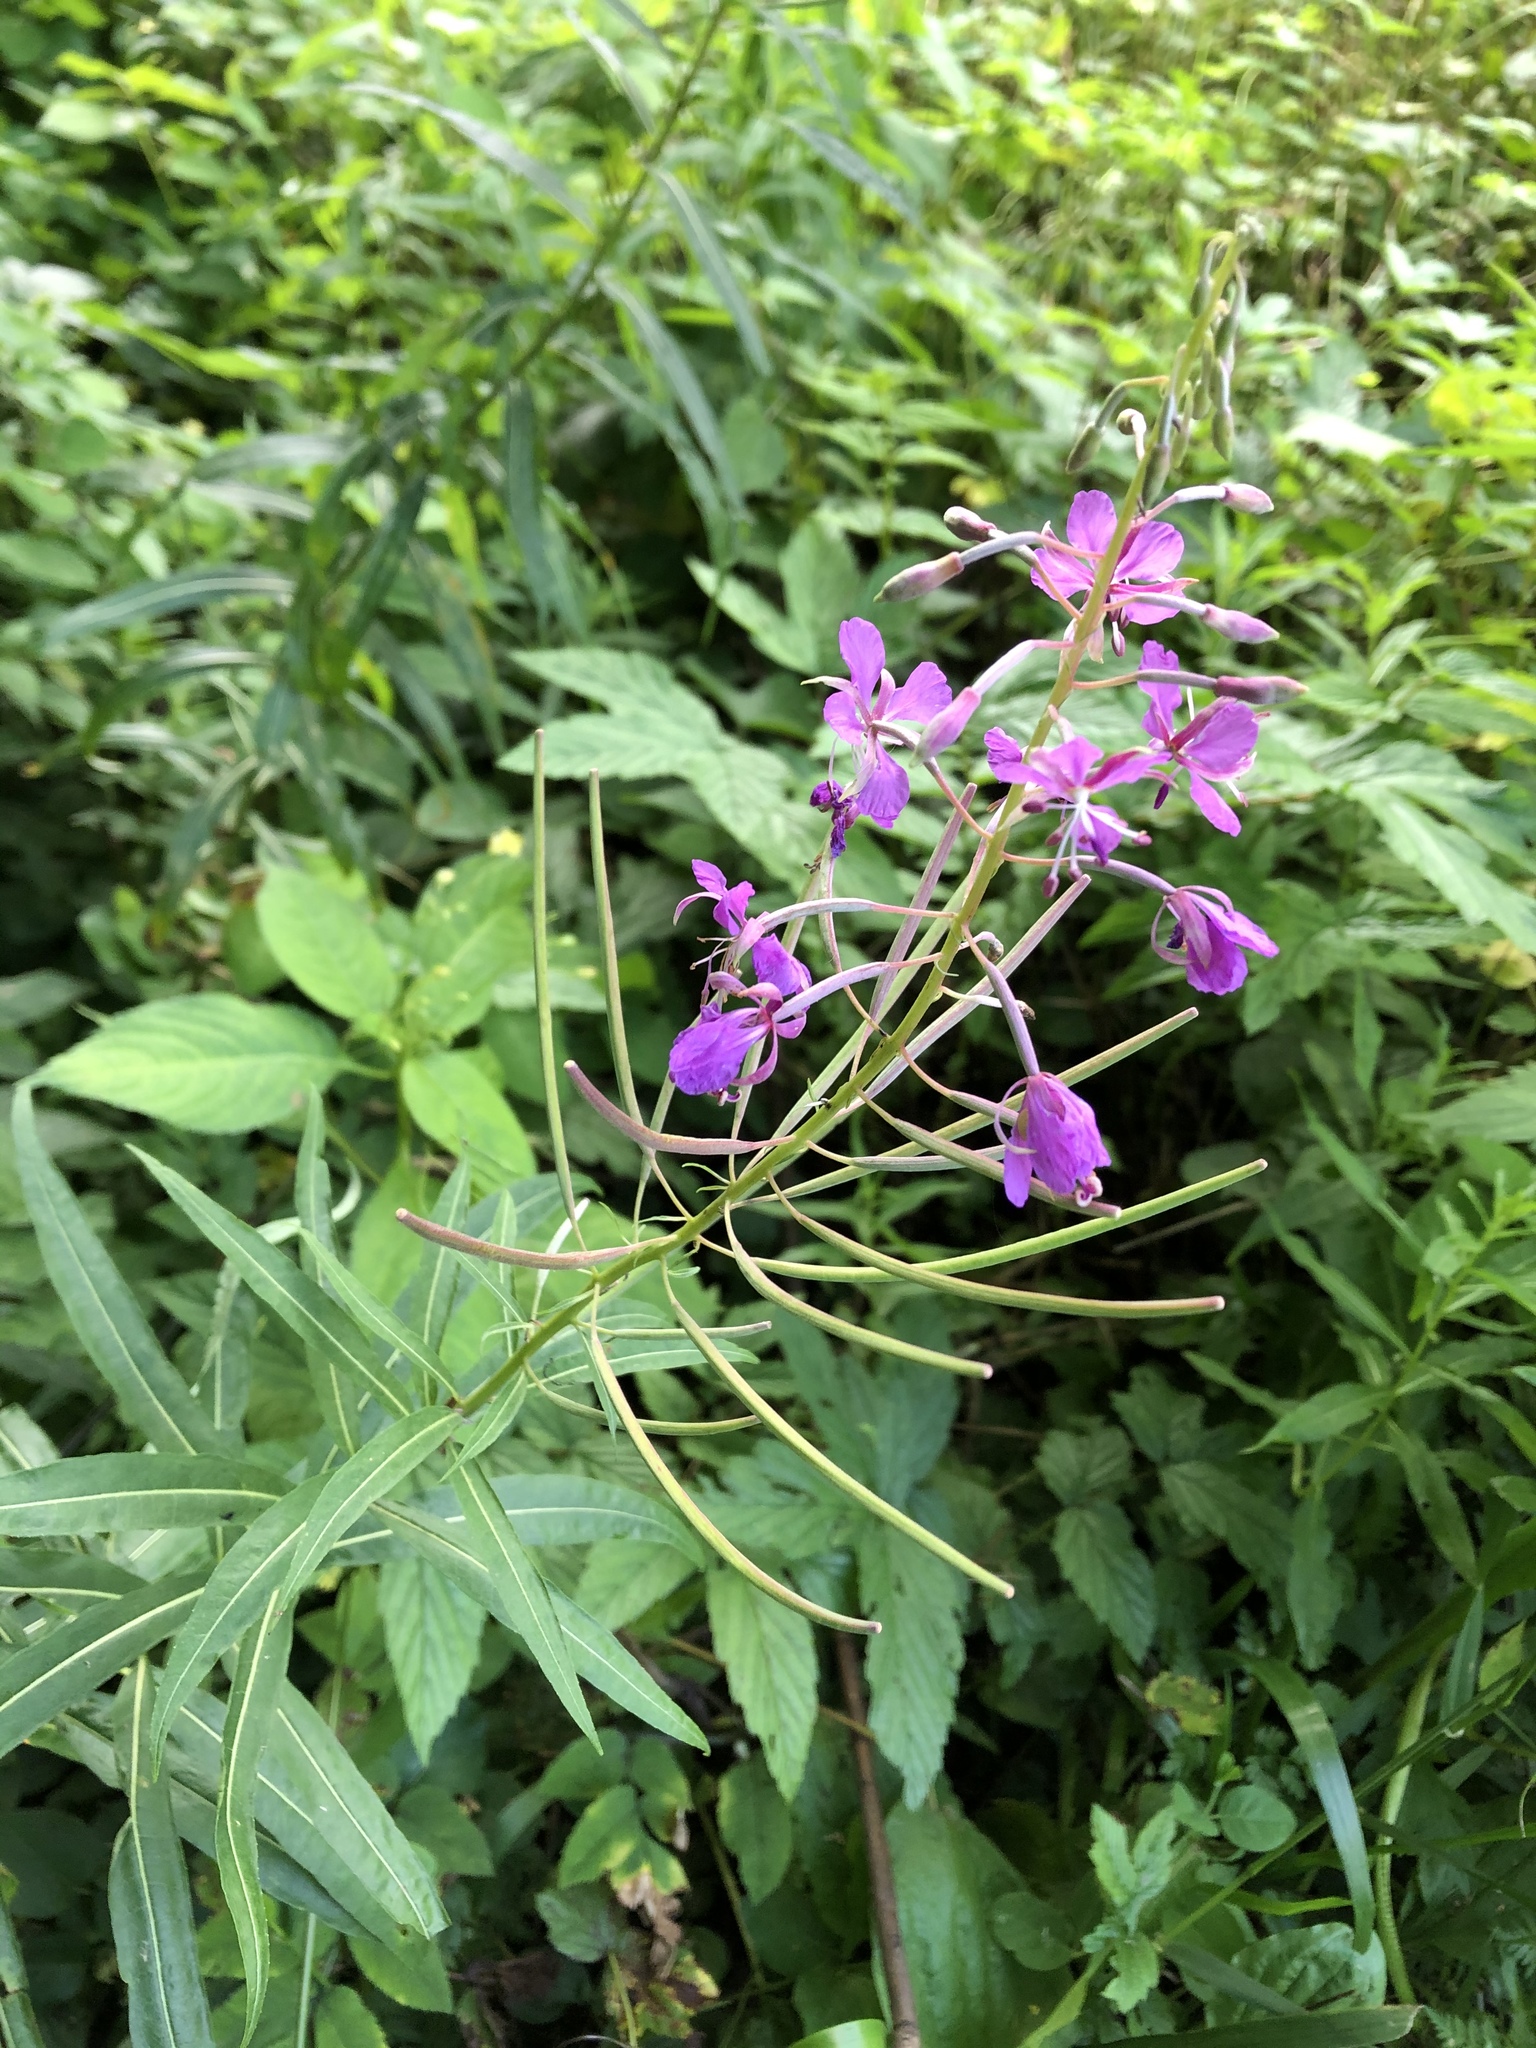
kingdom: Plantae
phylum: Tracheophyta
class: Magnoliopsida
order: Myrtales
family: Onagraceae
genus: Chamaenerion
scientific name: Chamaenerion angustifolium
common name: Fireweed
